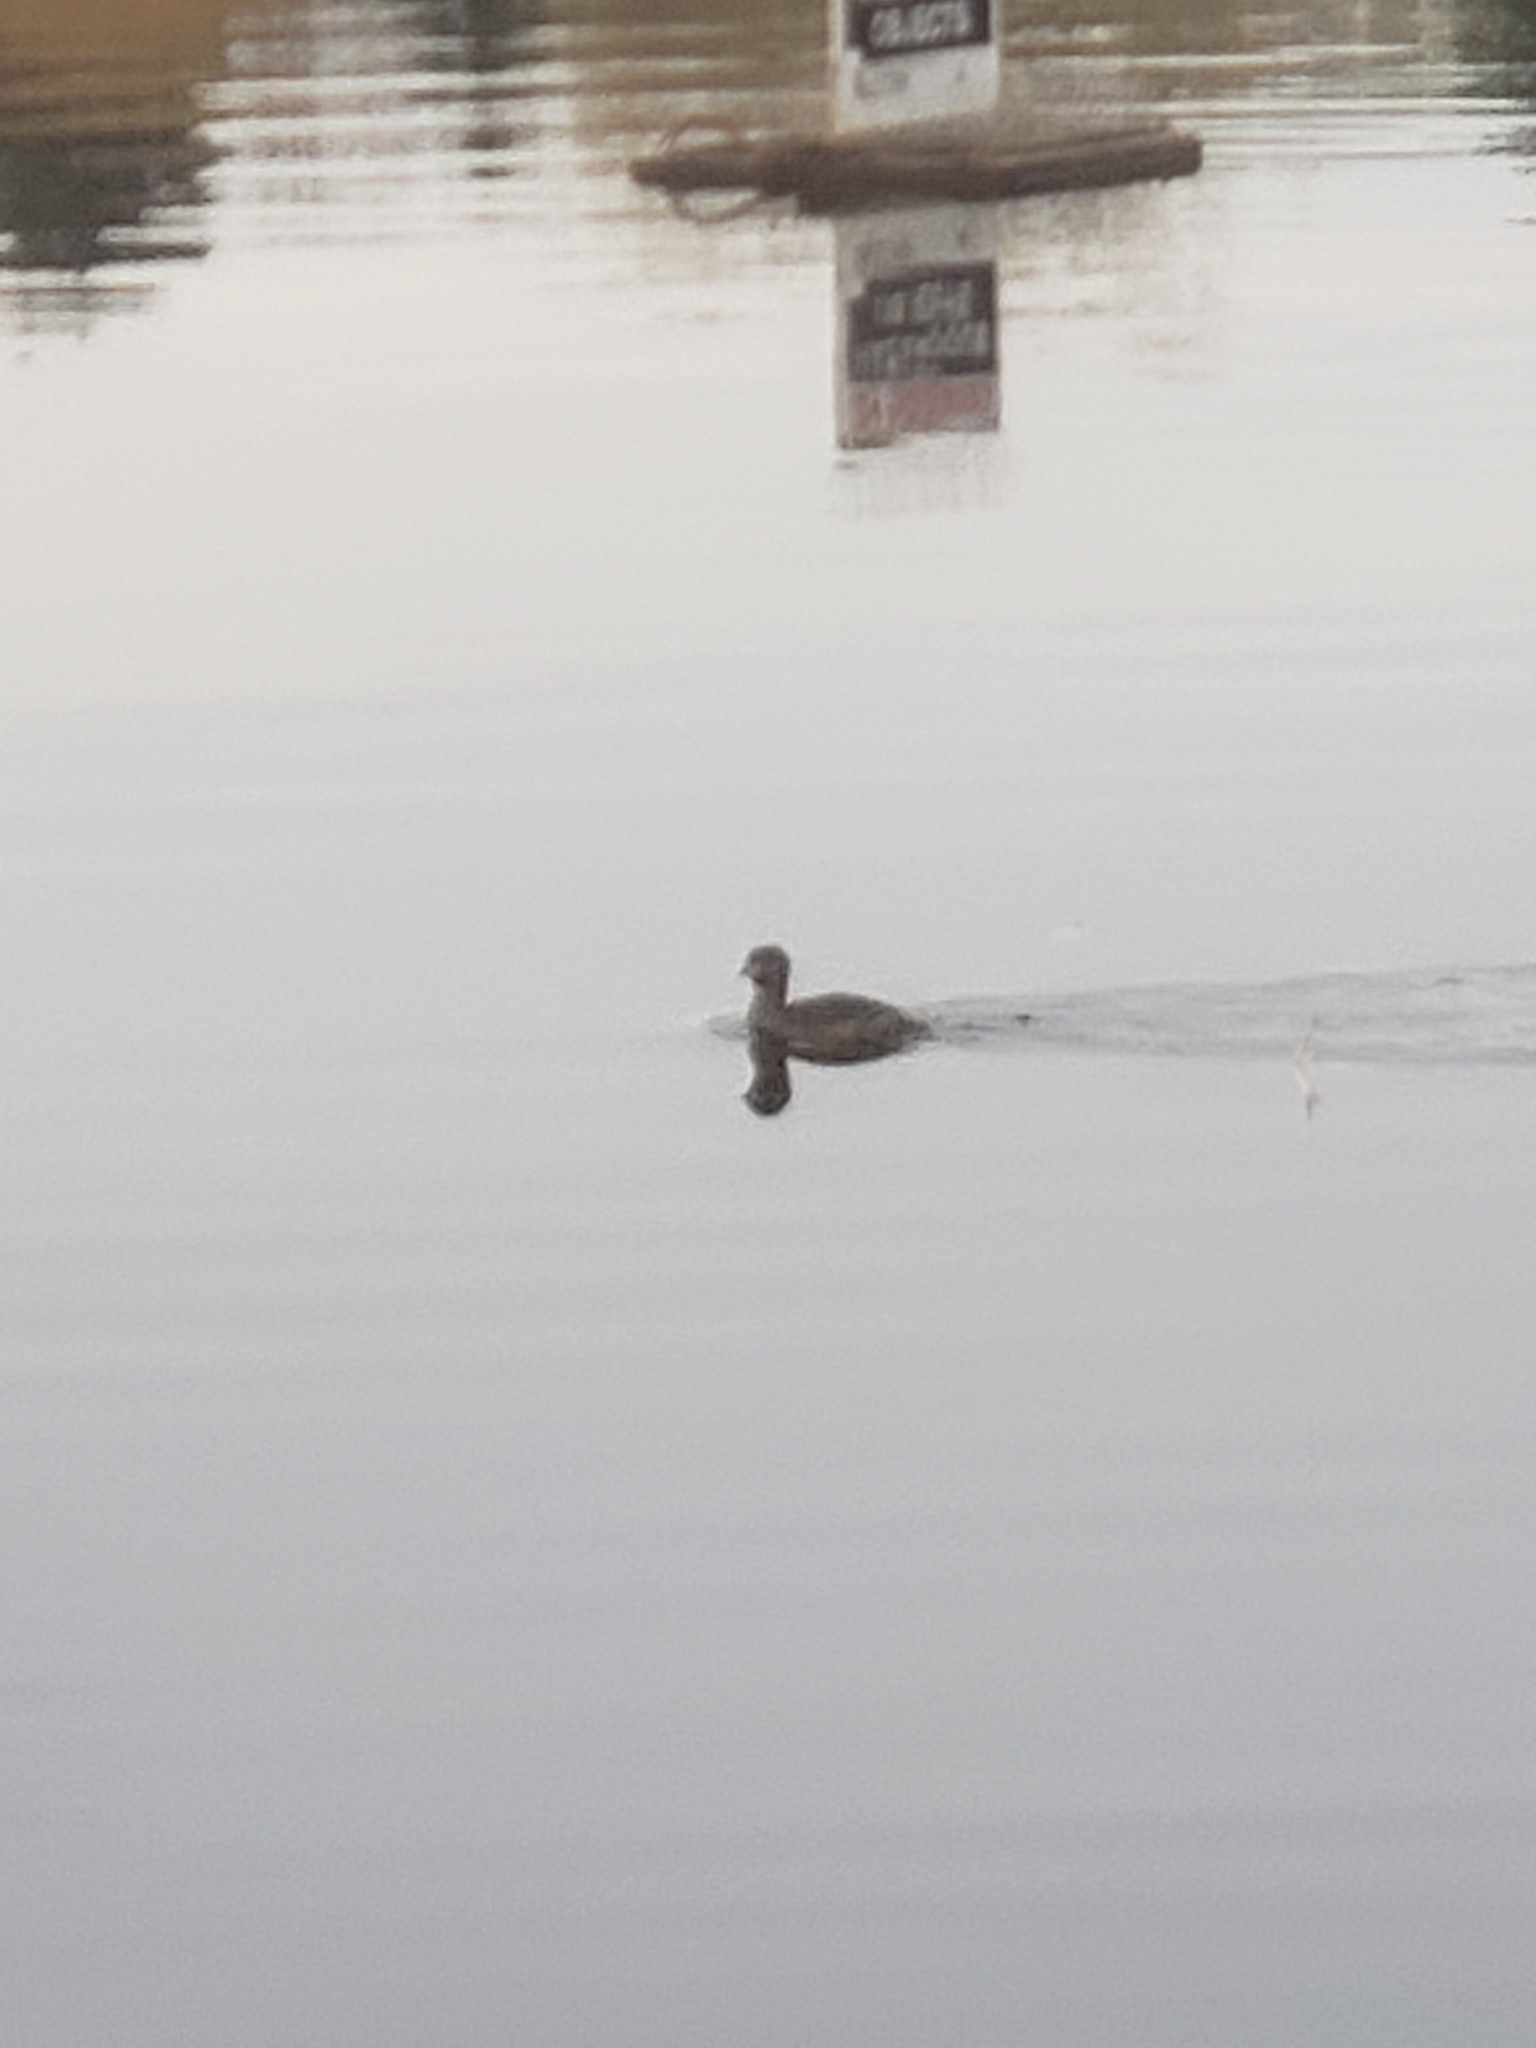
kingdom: Animalia
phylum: Chordata
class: Aves
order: Podicipediformes
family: Podicipedidae
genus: Podilymbus
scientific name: Podilymbus podiceps
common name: Pied-billed grebe
